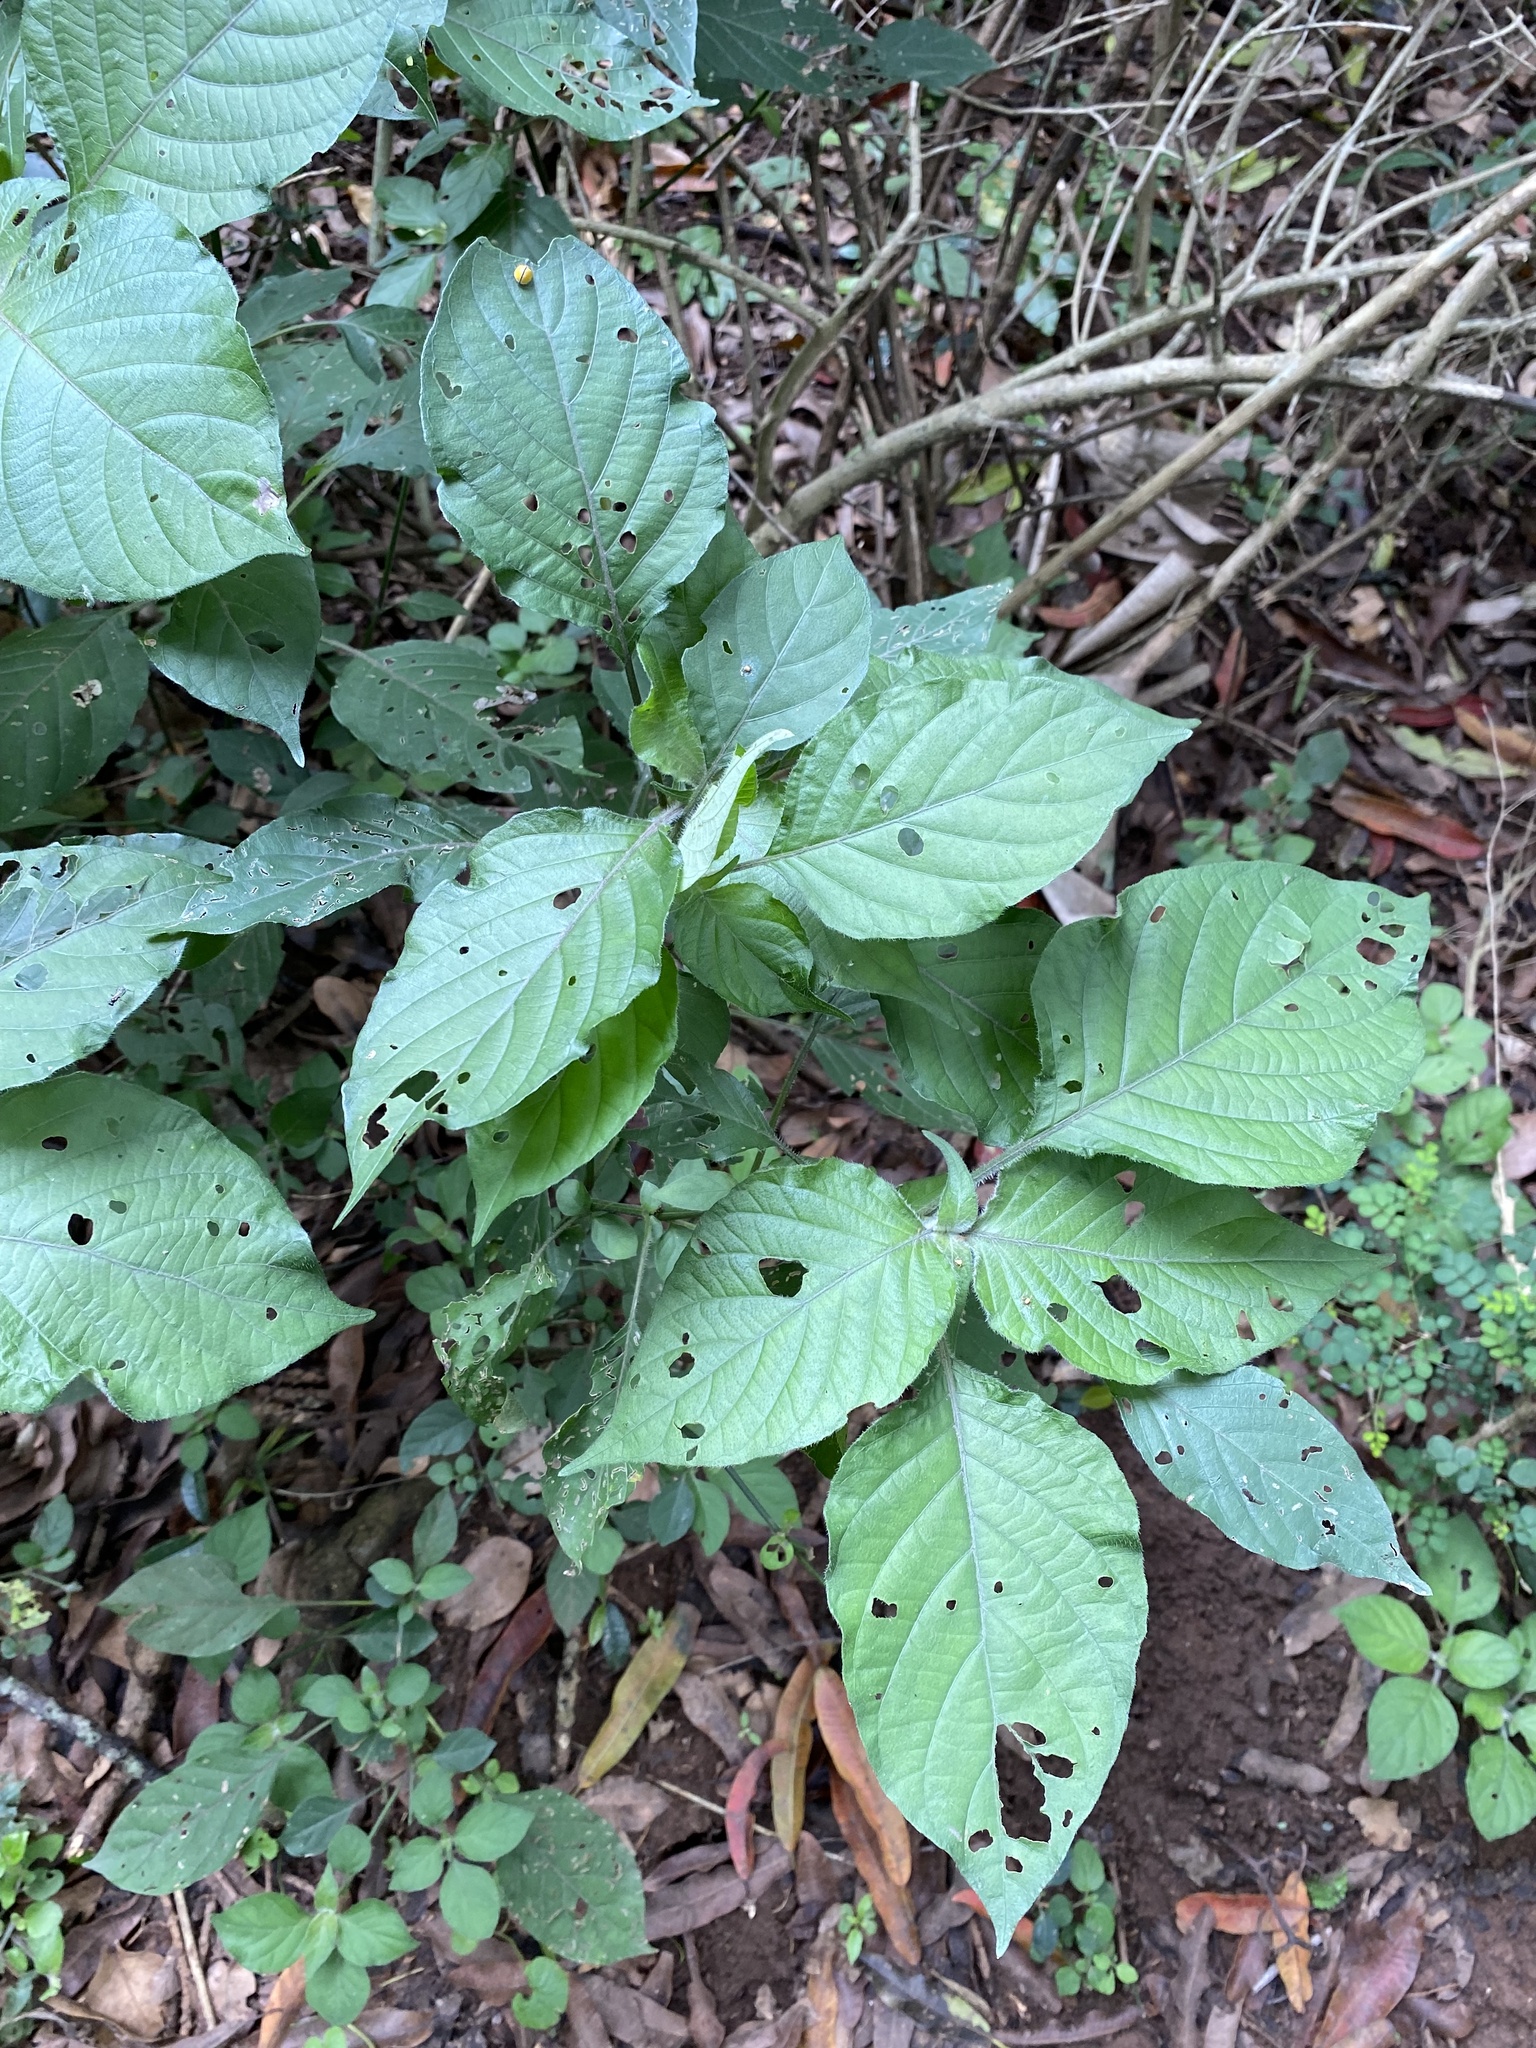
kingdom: Plantae
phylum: Tracheophyta
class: Magnoliopsida
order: Lamiales
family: Acanthaceae
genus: Isoglossa
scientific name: Isoglossa woodii
